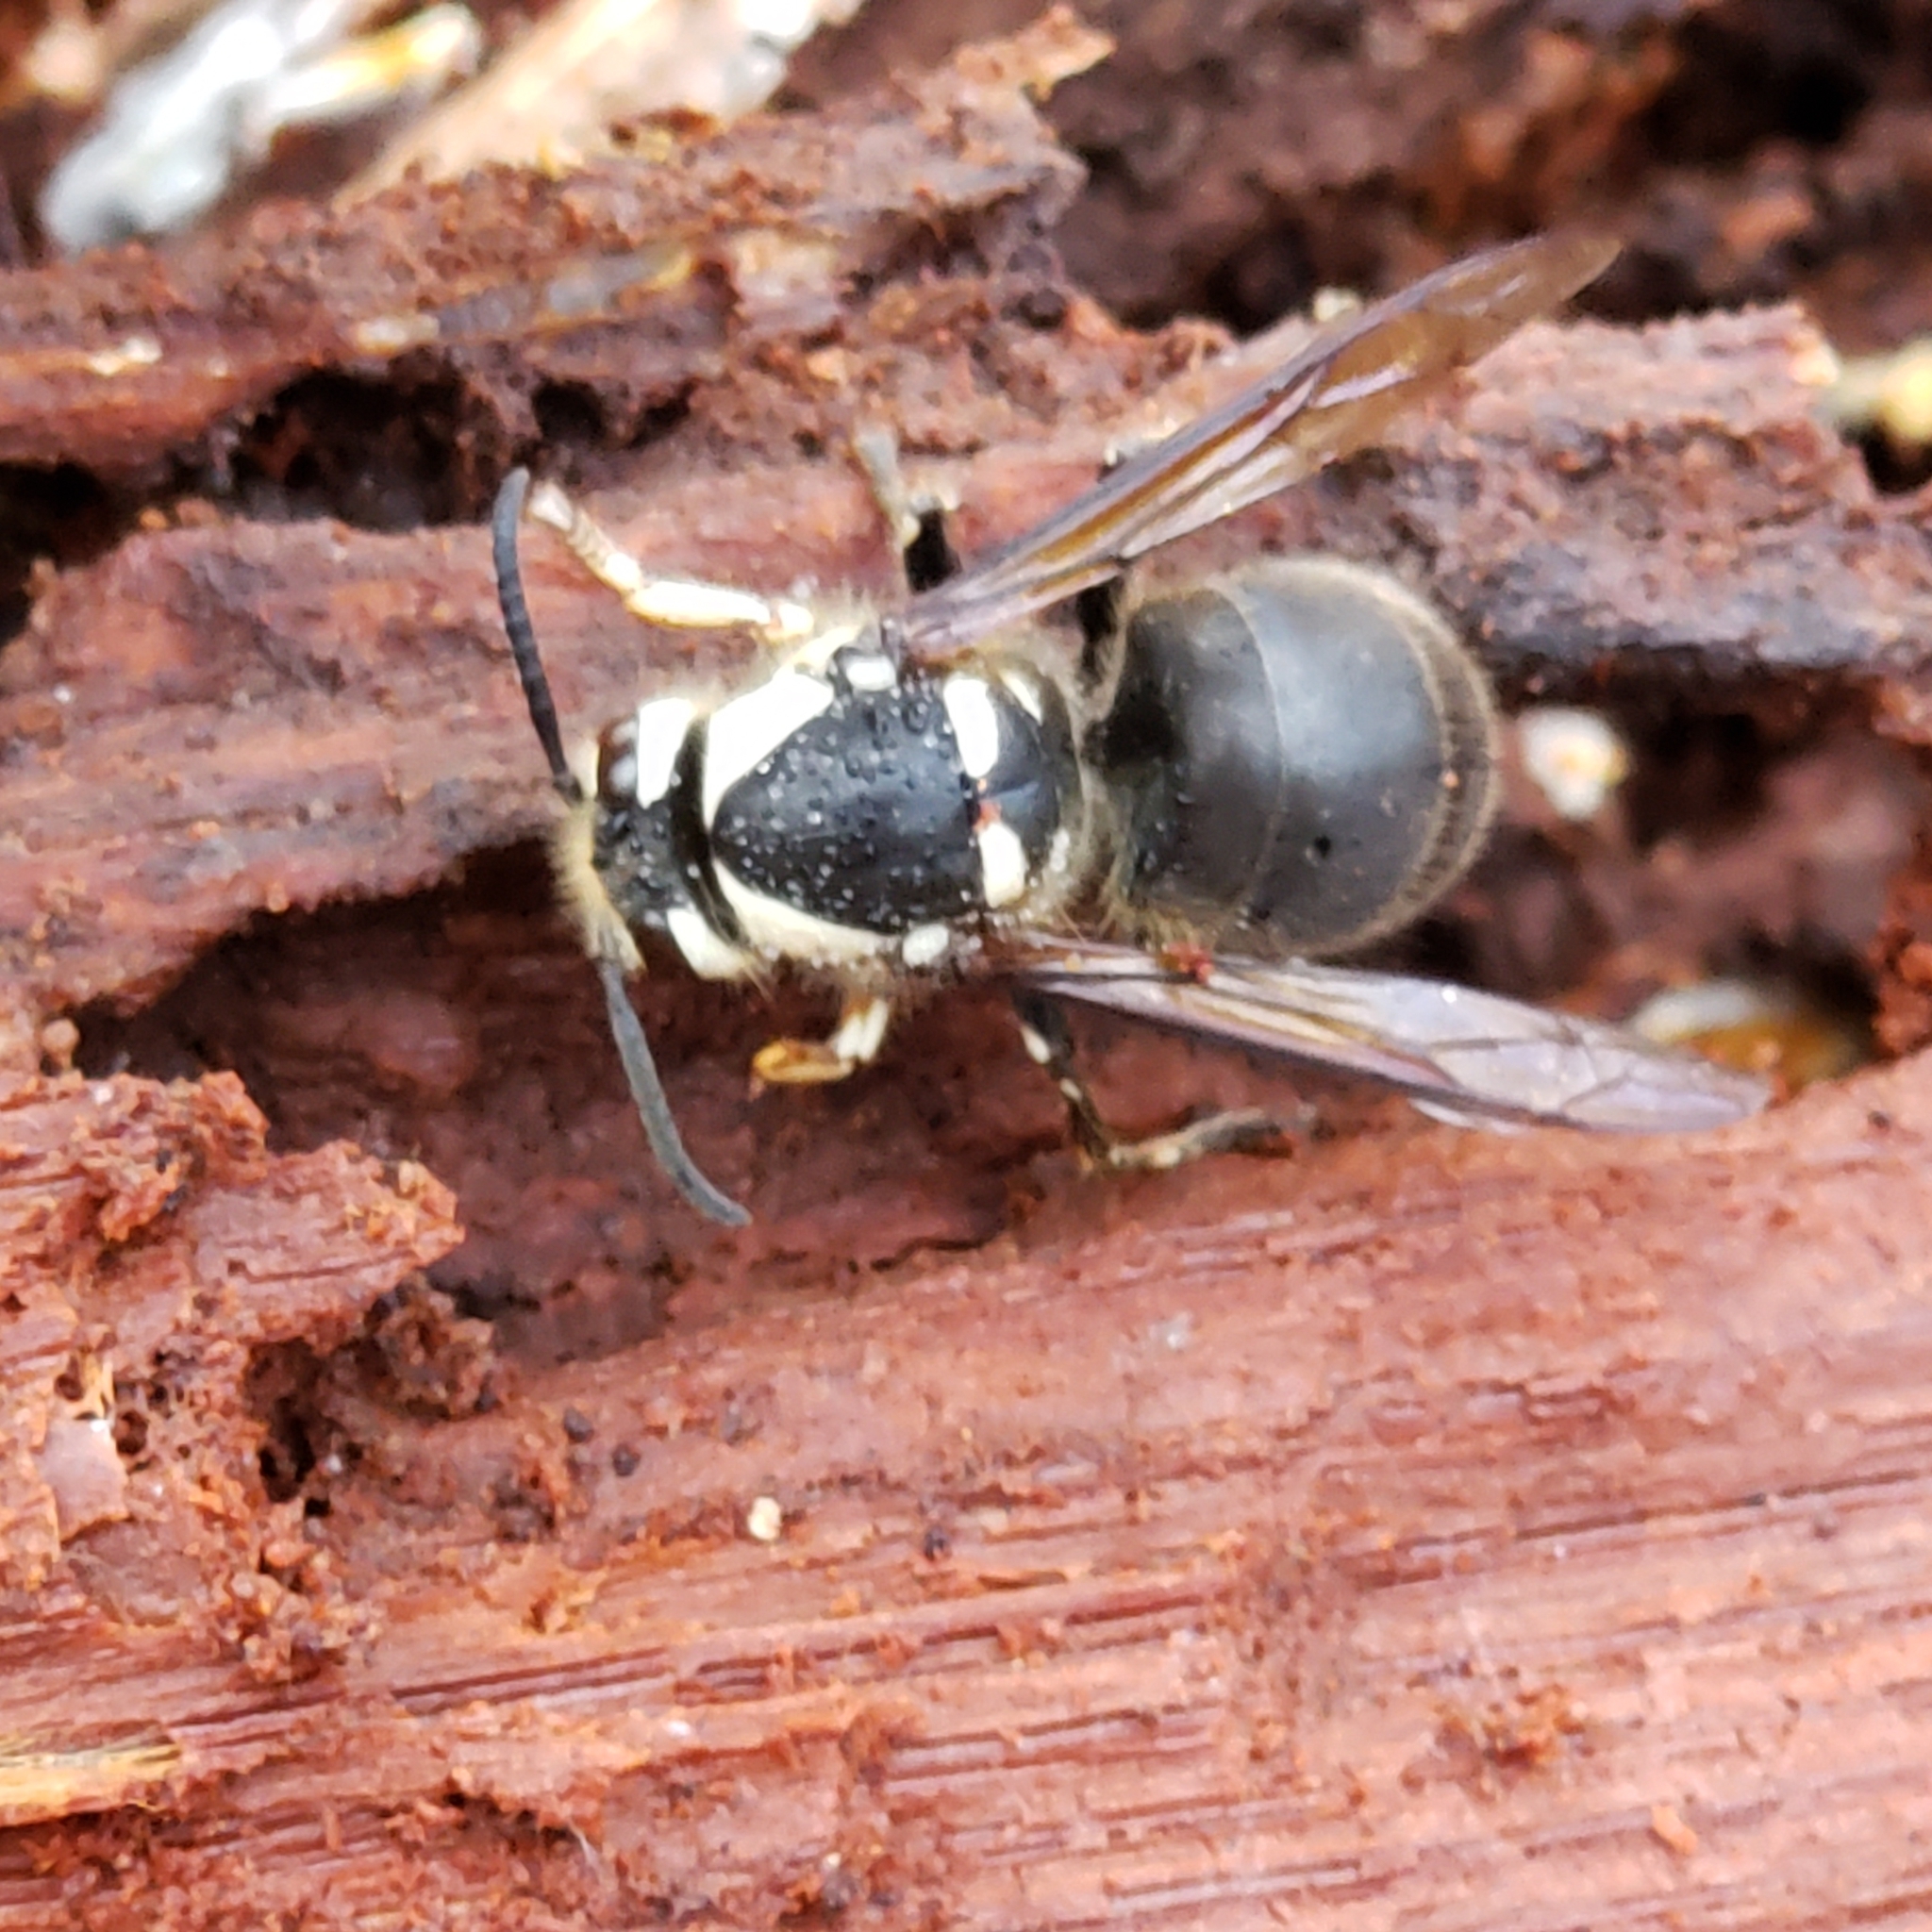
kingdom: Animalia
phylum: Arthropoda
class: Insecta
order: Hymenoptera
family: Vespidae
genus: Dolichovespula
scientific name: Dolichovespula maculata
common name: Bald-faced hornet
